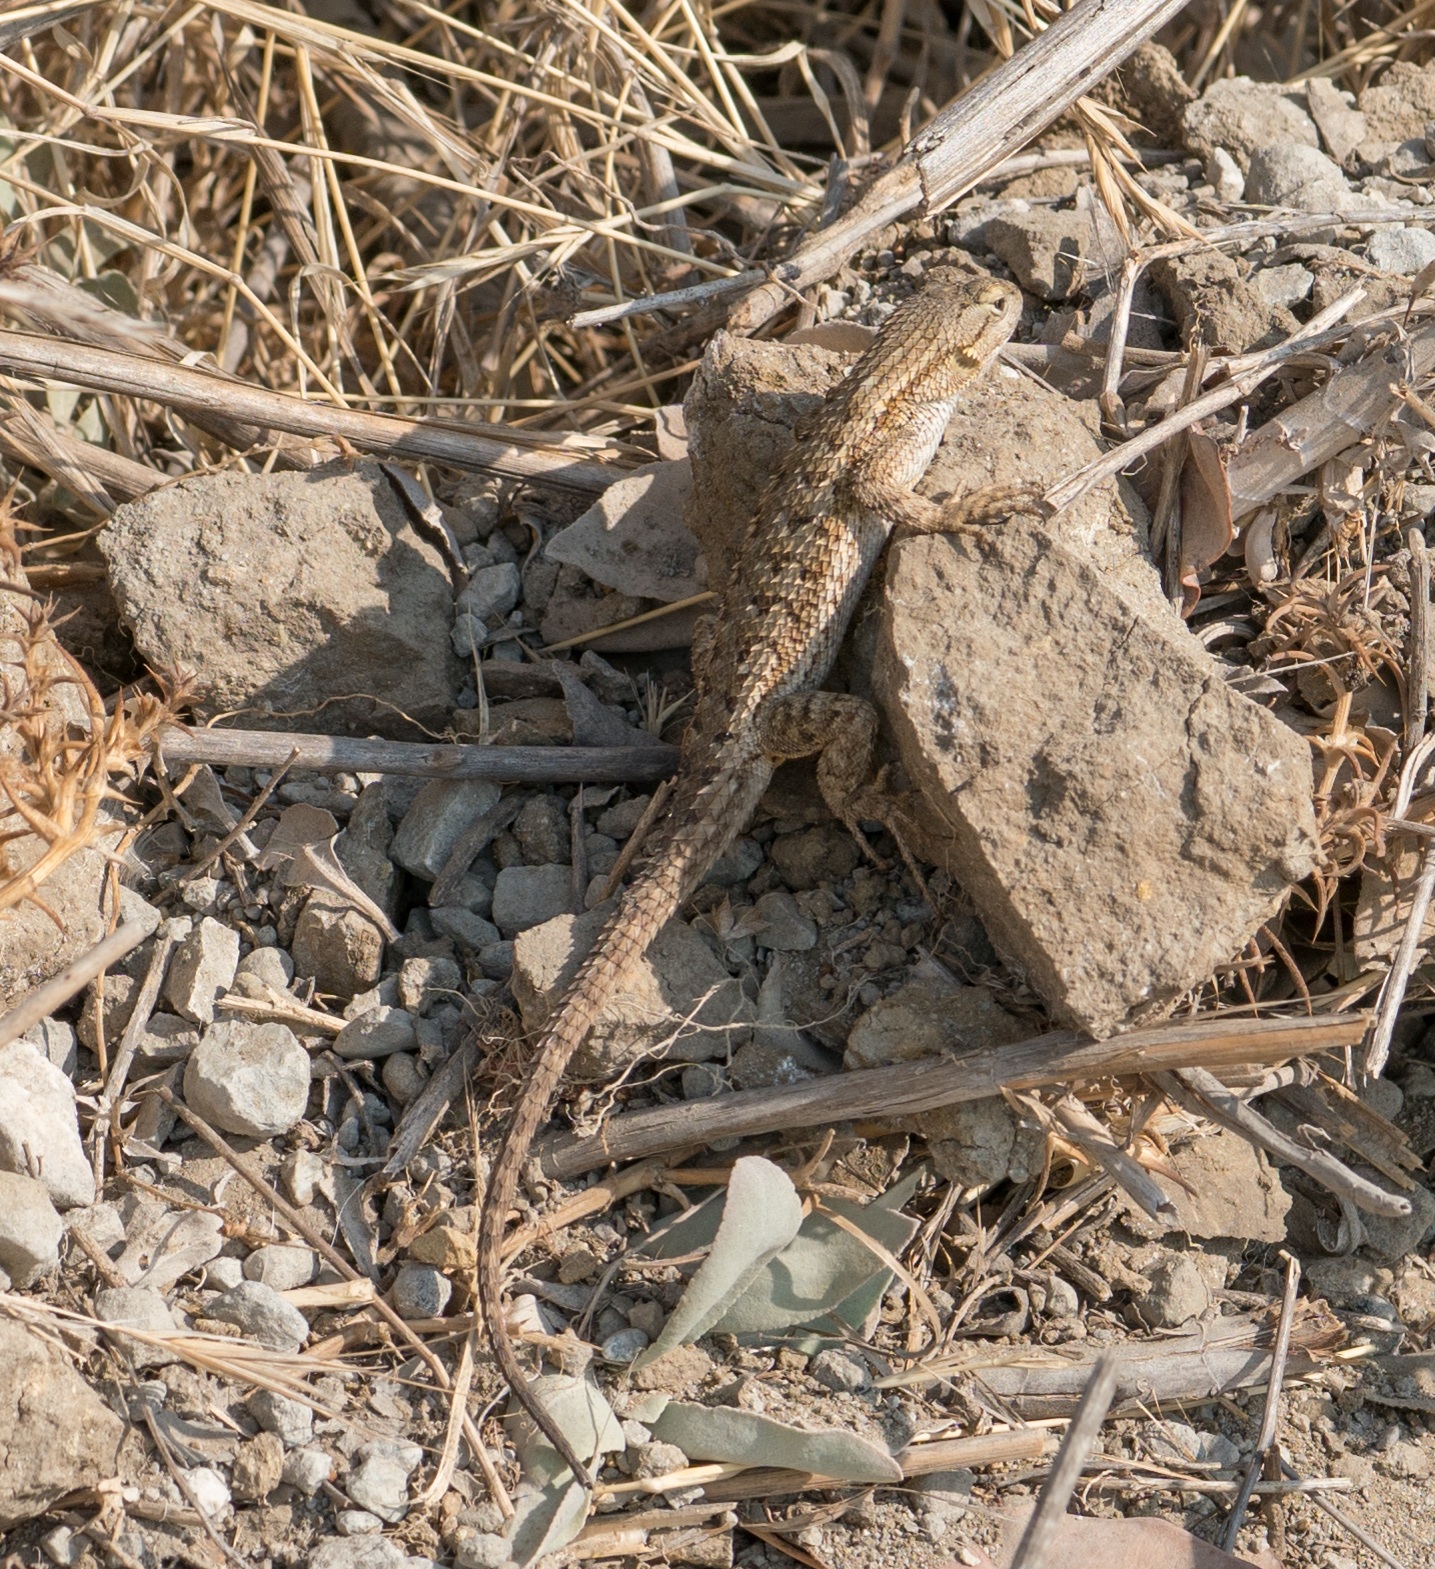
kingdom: Animalia
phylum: Chordata
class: Squamata
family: Phrynosomatidae
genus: Sceloporus
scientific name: Sceloporus occidentalis
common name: Western fence lizard
